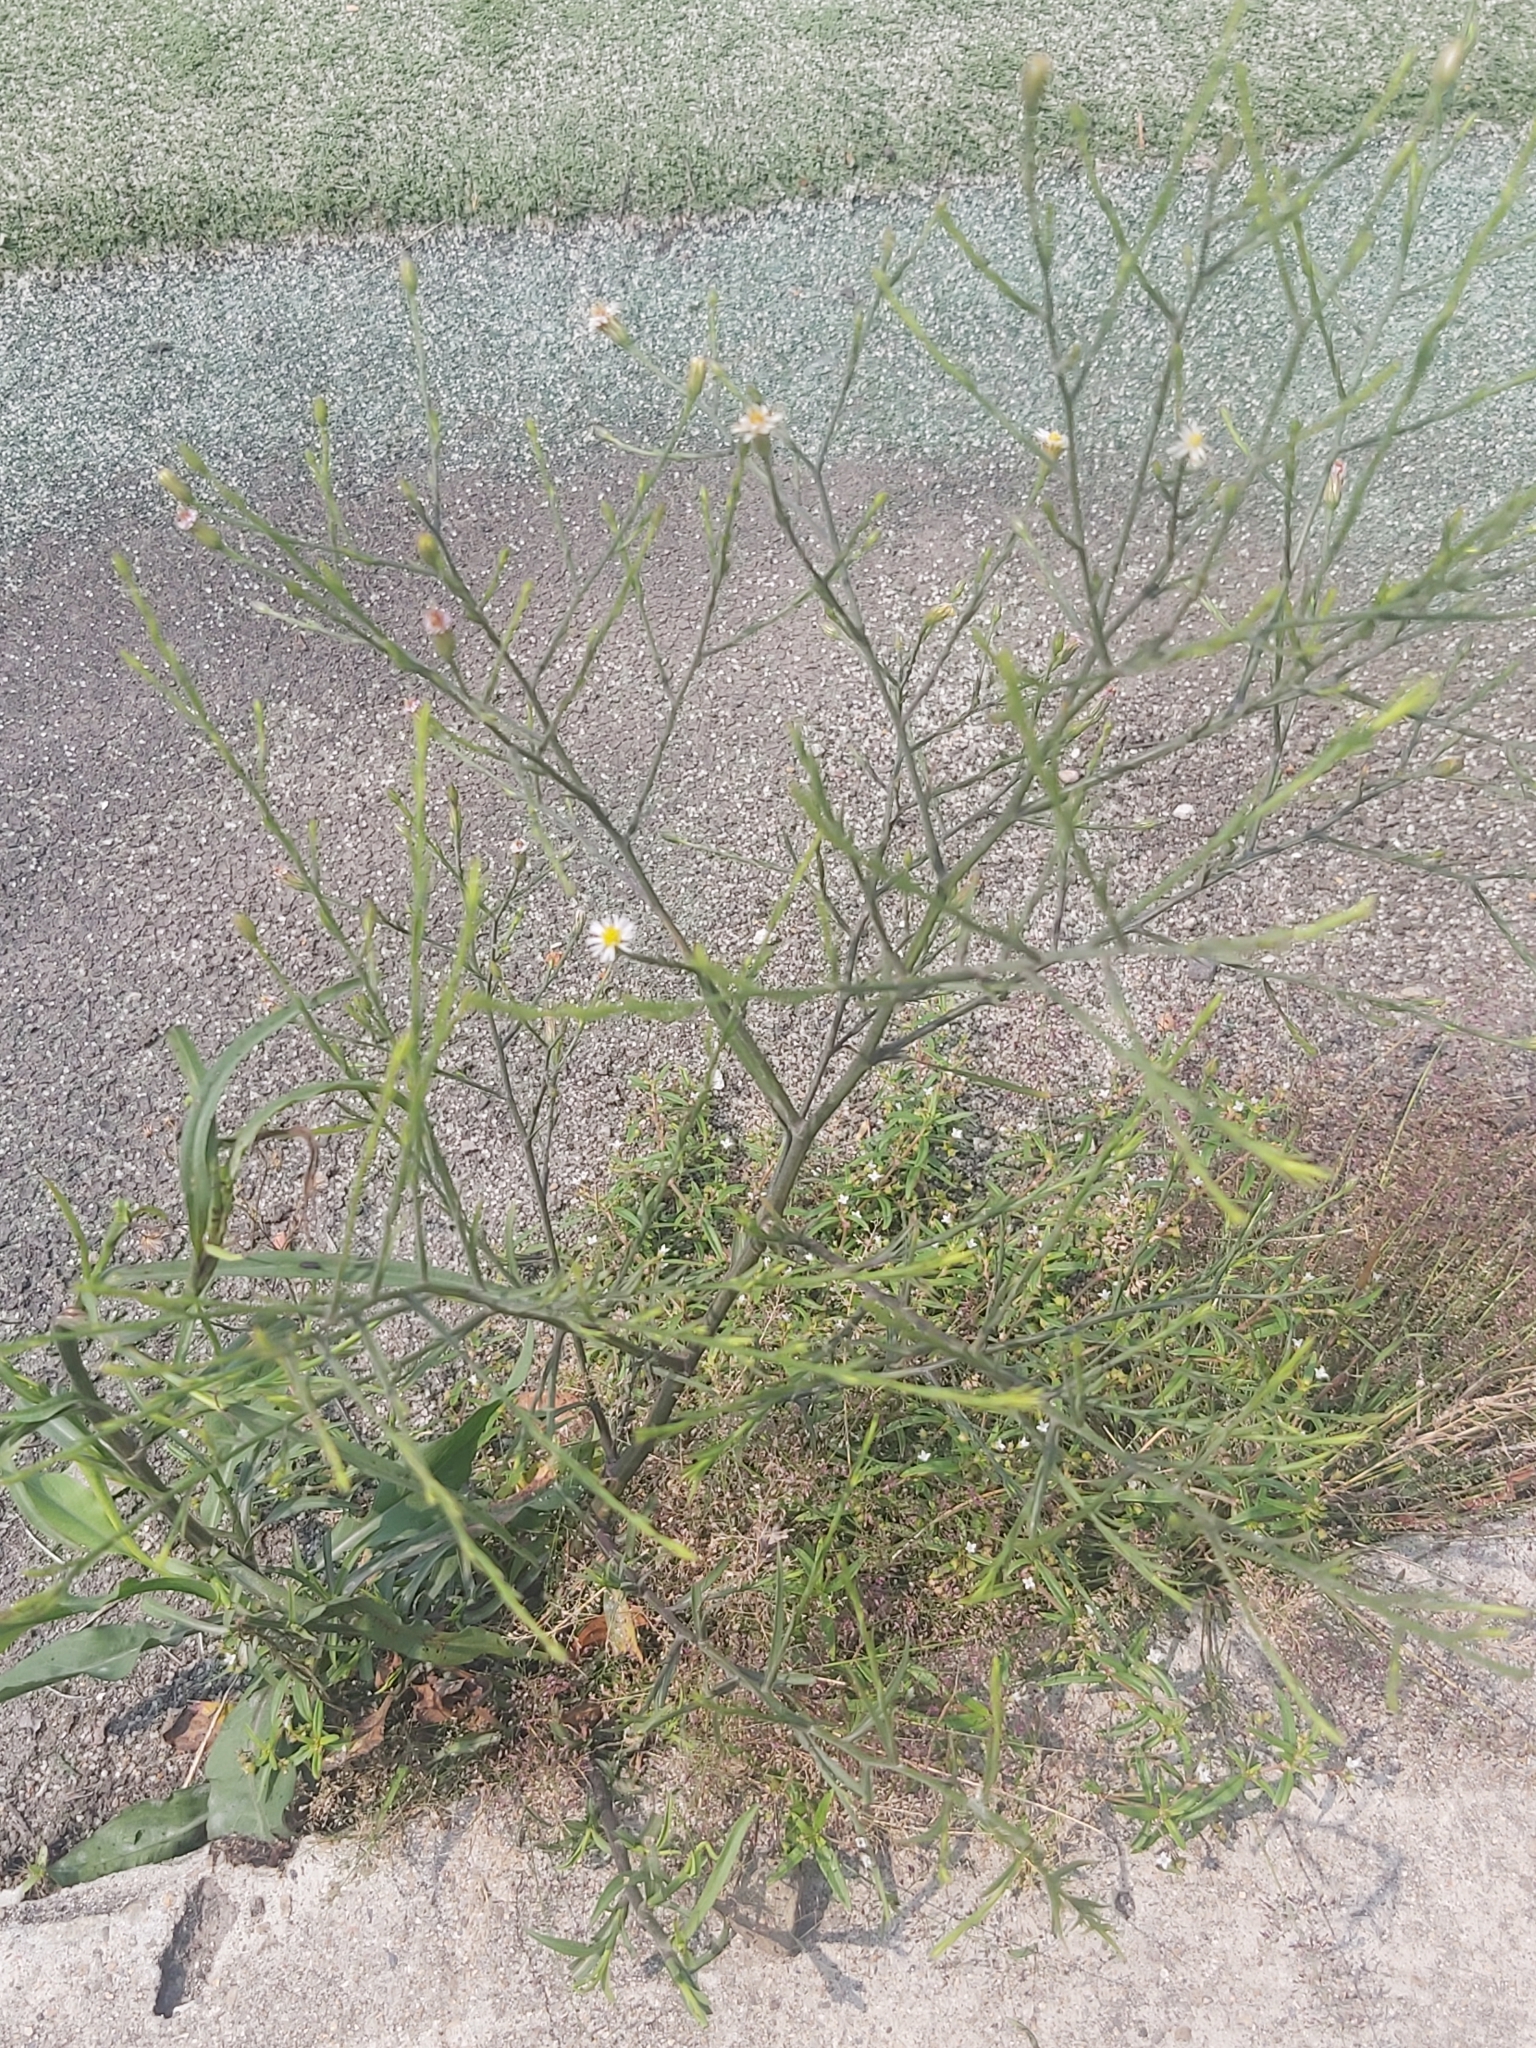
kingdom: Plantae
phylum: Tracheophyta
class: Magnoliopsida
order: Asterales
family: Asteraceae
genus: Symphyotrichum
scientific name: Symphyotrichum subulatum
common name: Annual saltmarsh aster
